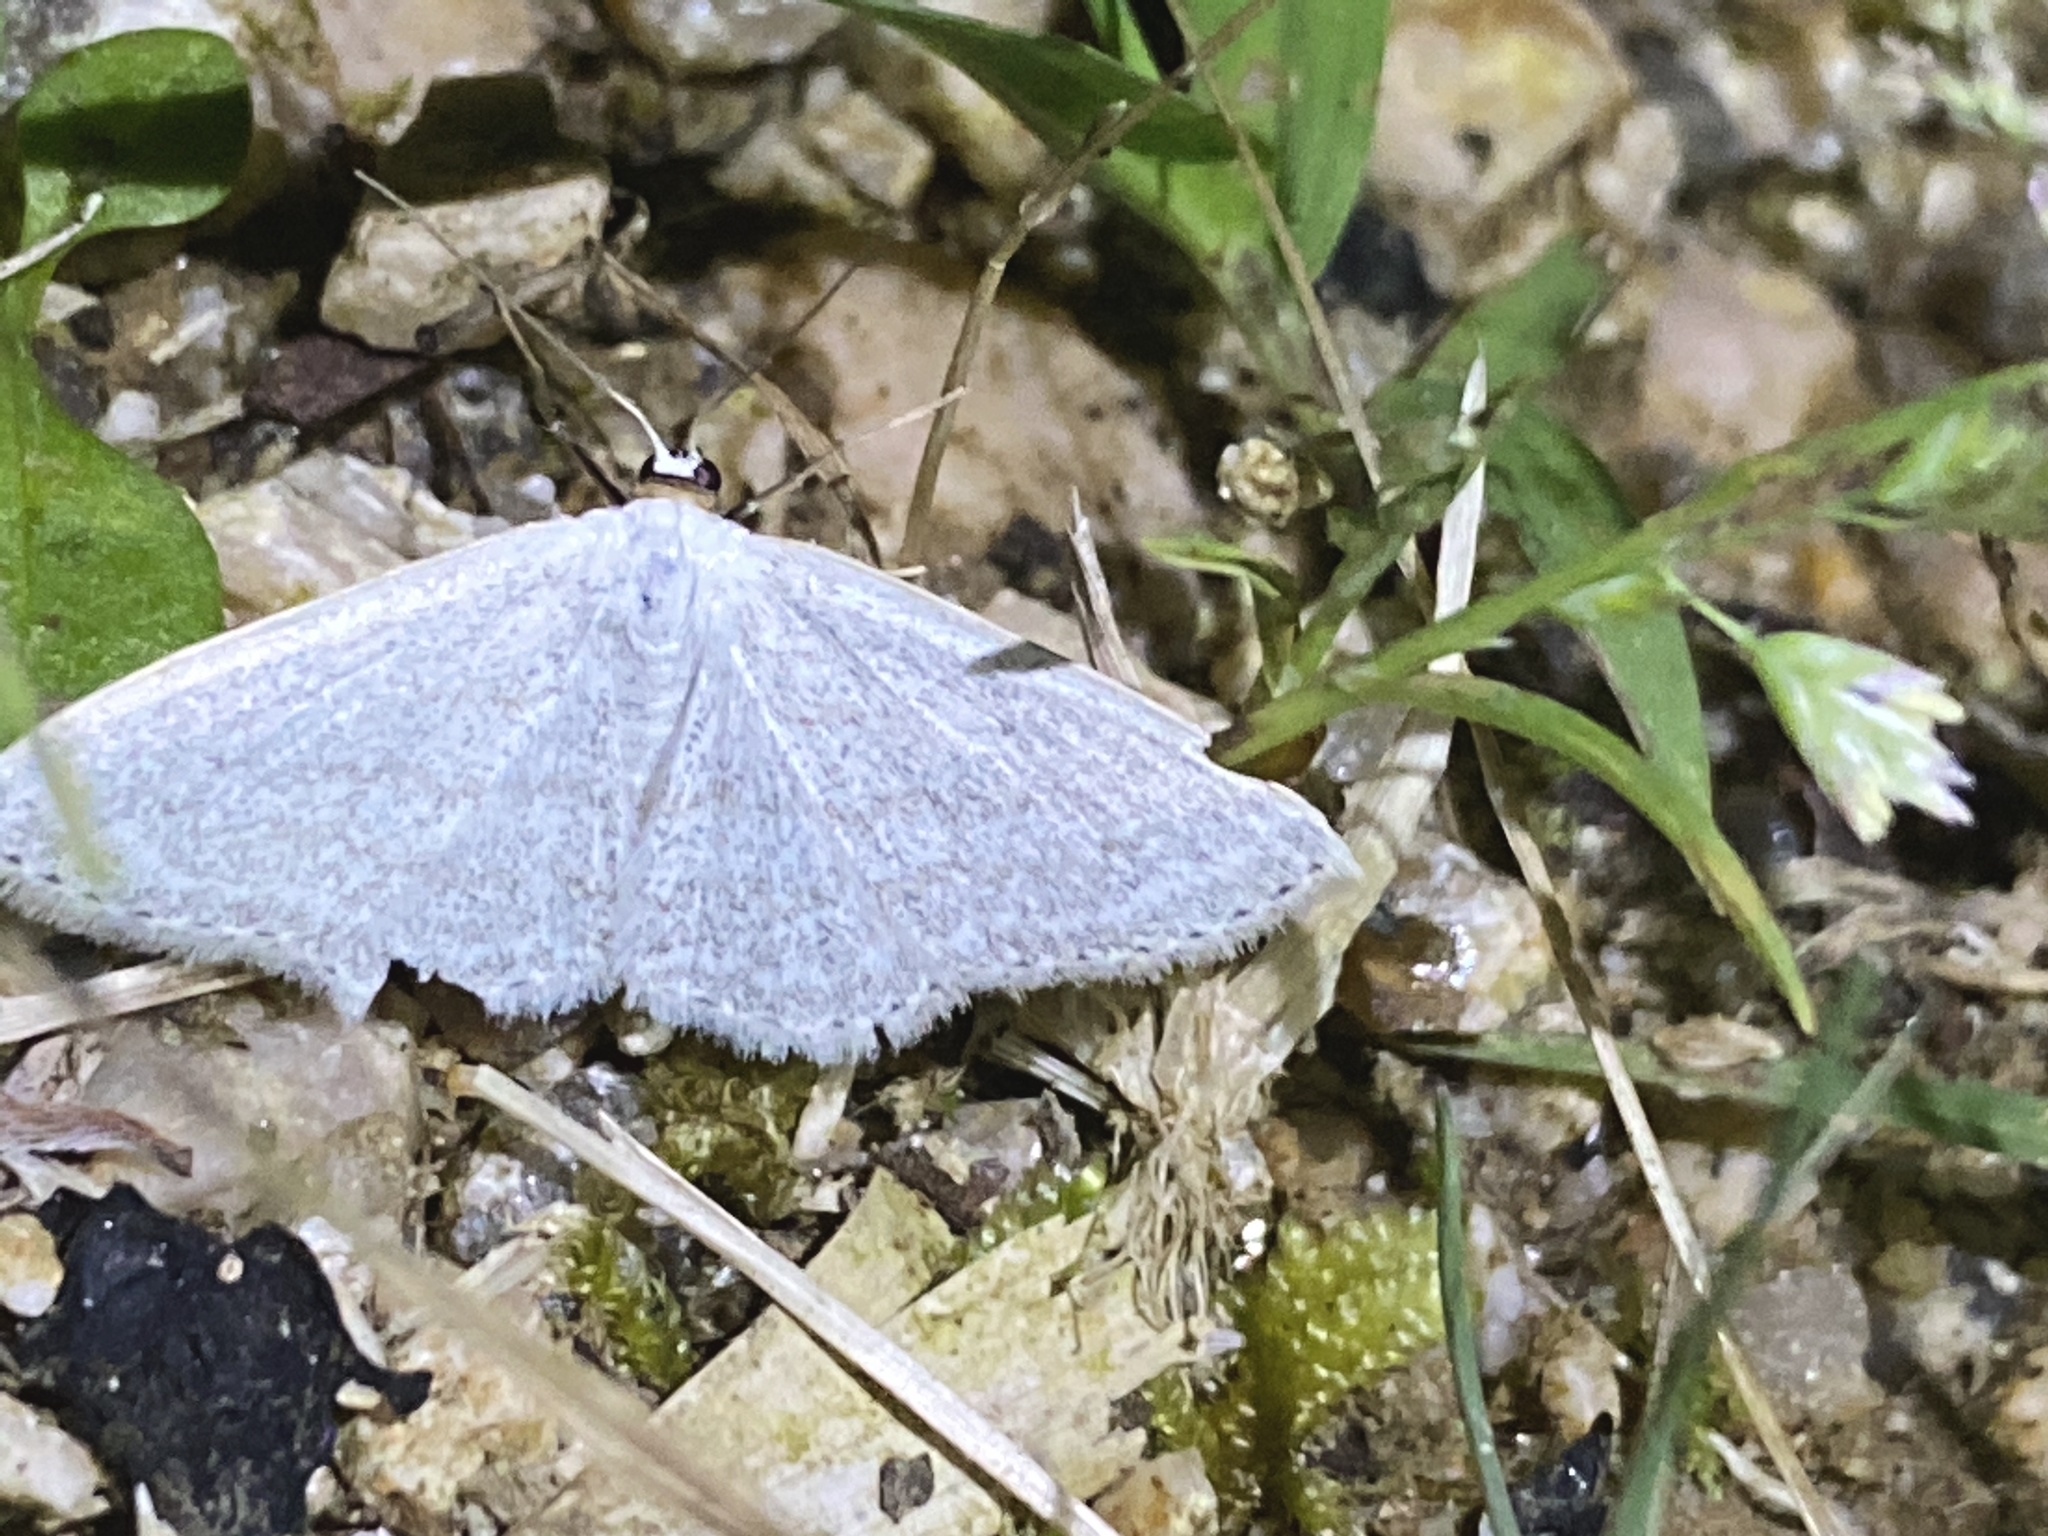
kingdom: Animalia
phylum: Arthropoda
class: Insecta
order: Lepidoptera
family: Geometridae
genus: Scopula
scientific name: Scopula epiorrhoe
